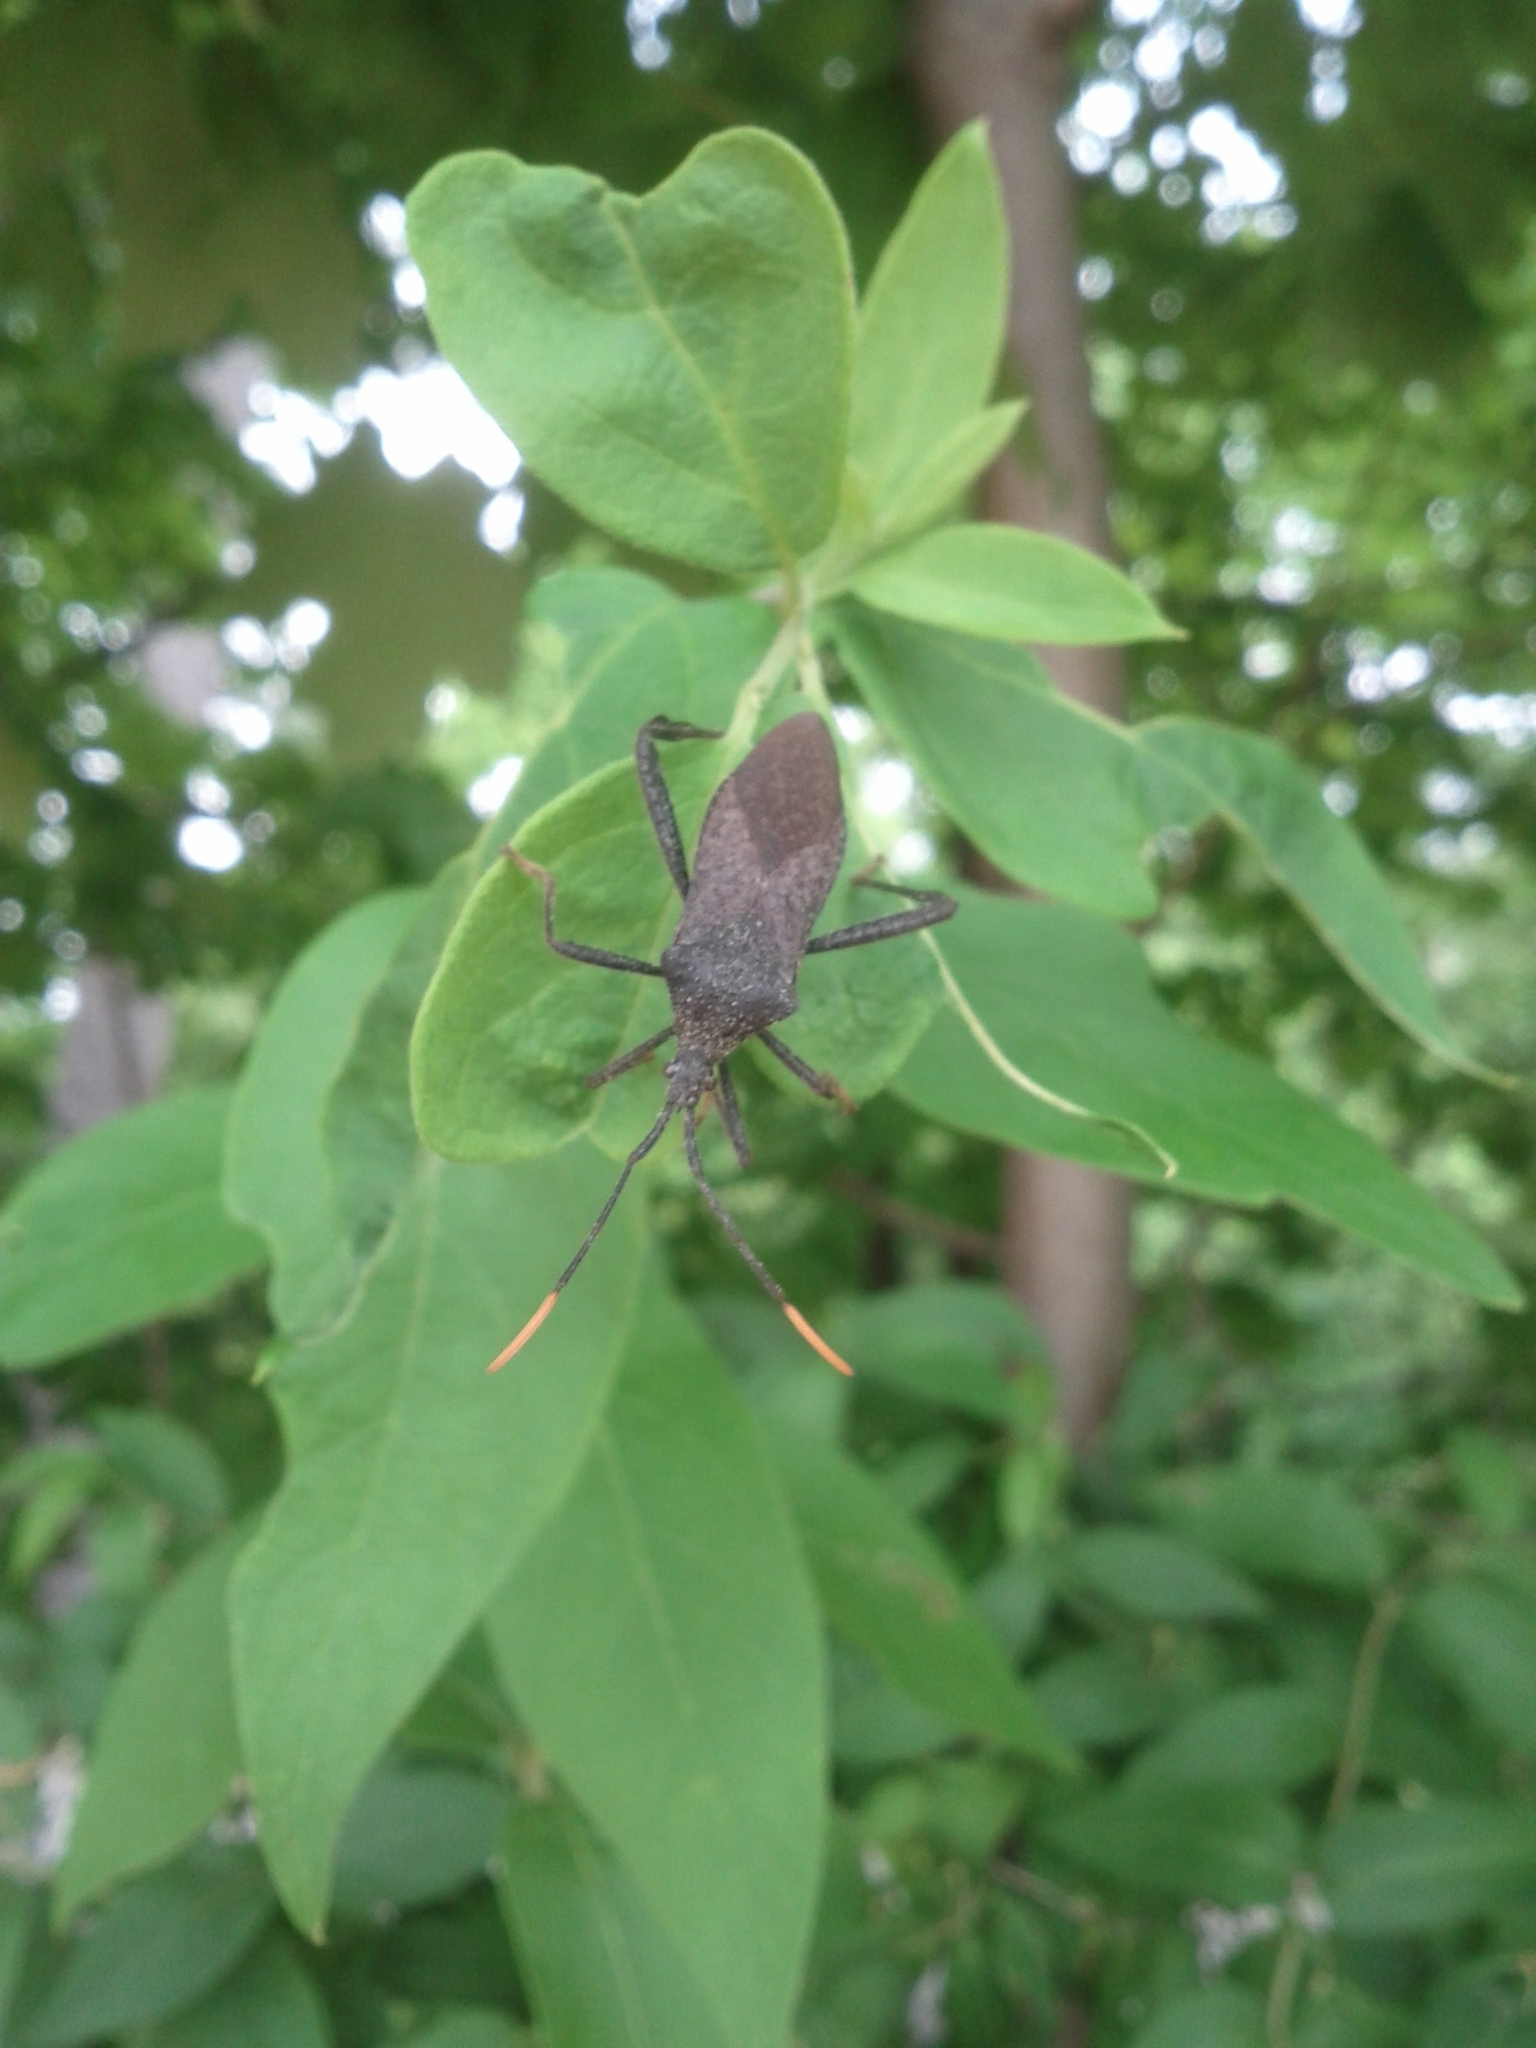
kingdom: Animalia
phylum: Arthropoda
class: Insecta
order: Hemiptera
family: Coreidae
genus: Acanthocephala
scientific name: Acanthocephala terminalis
